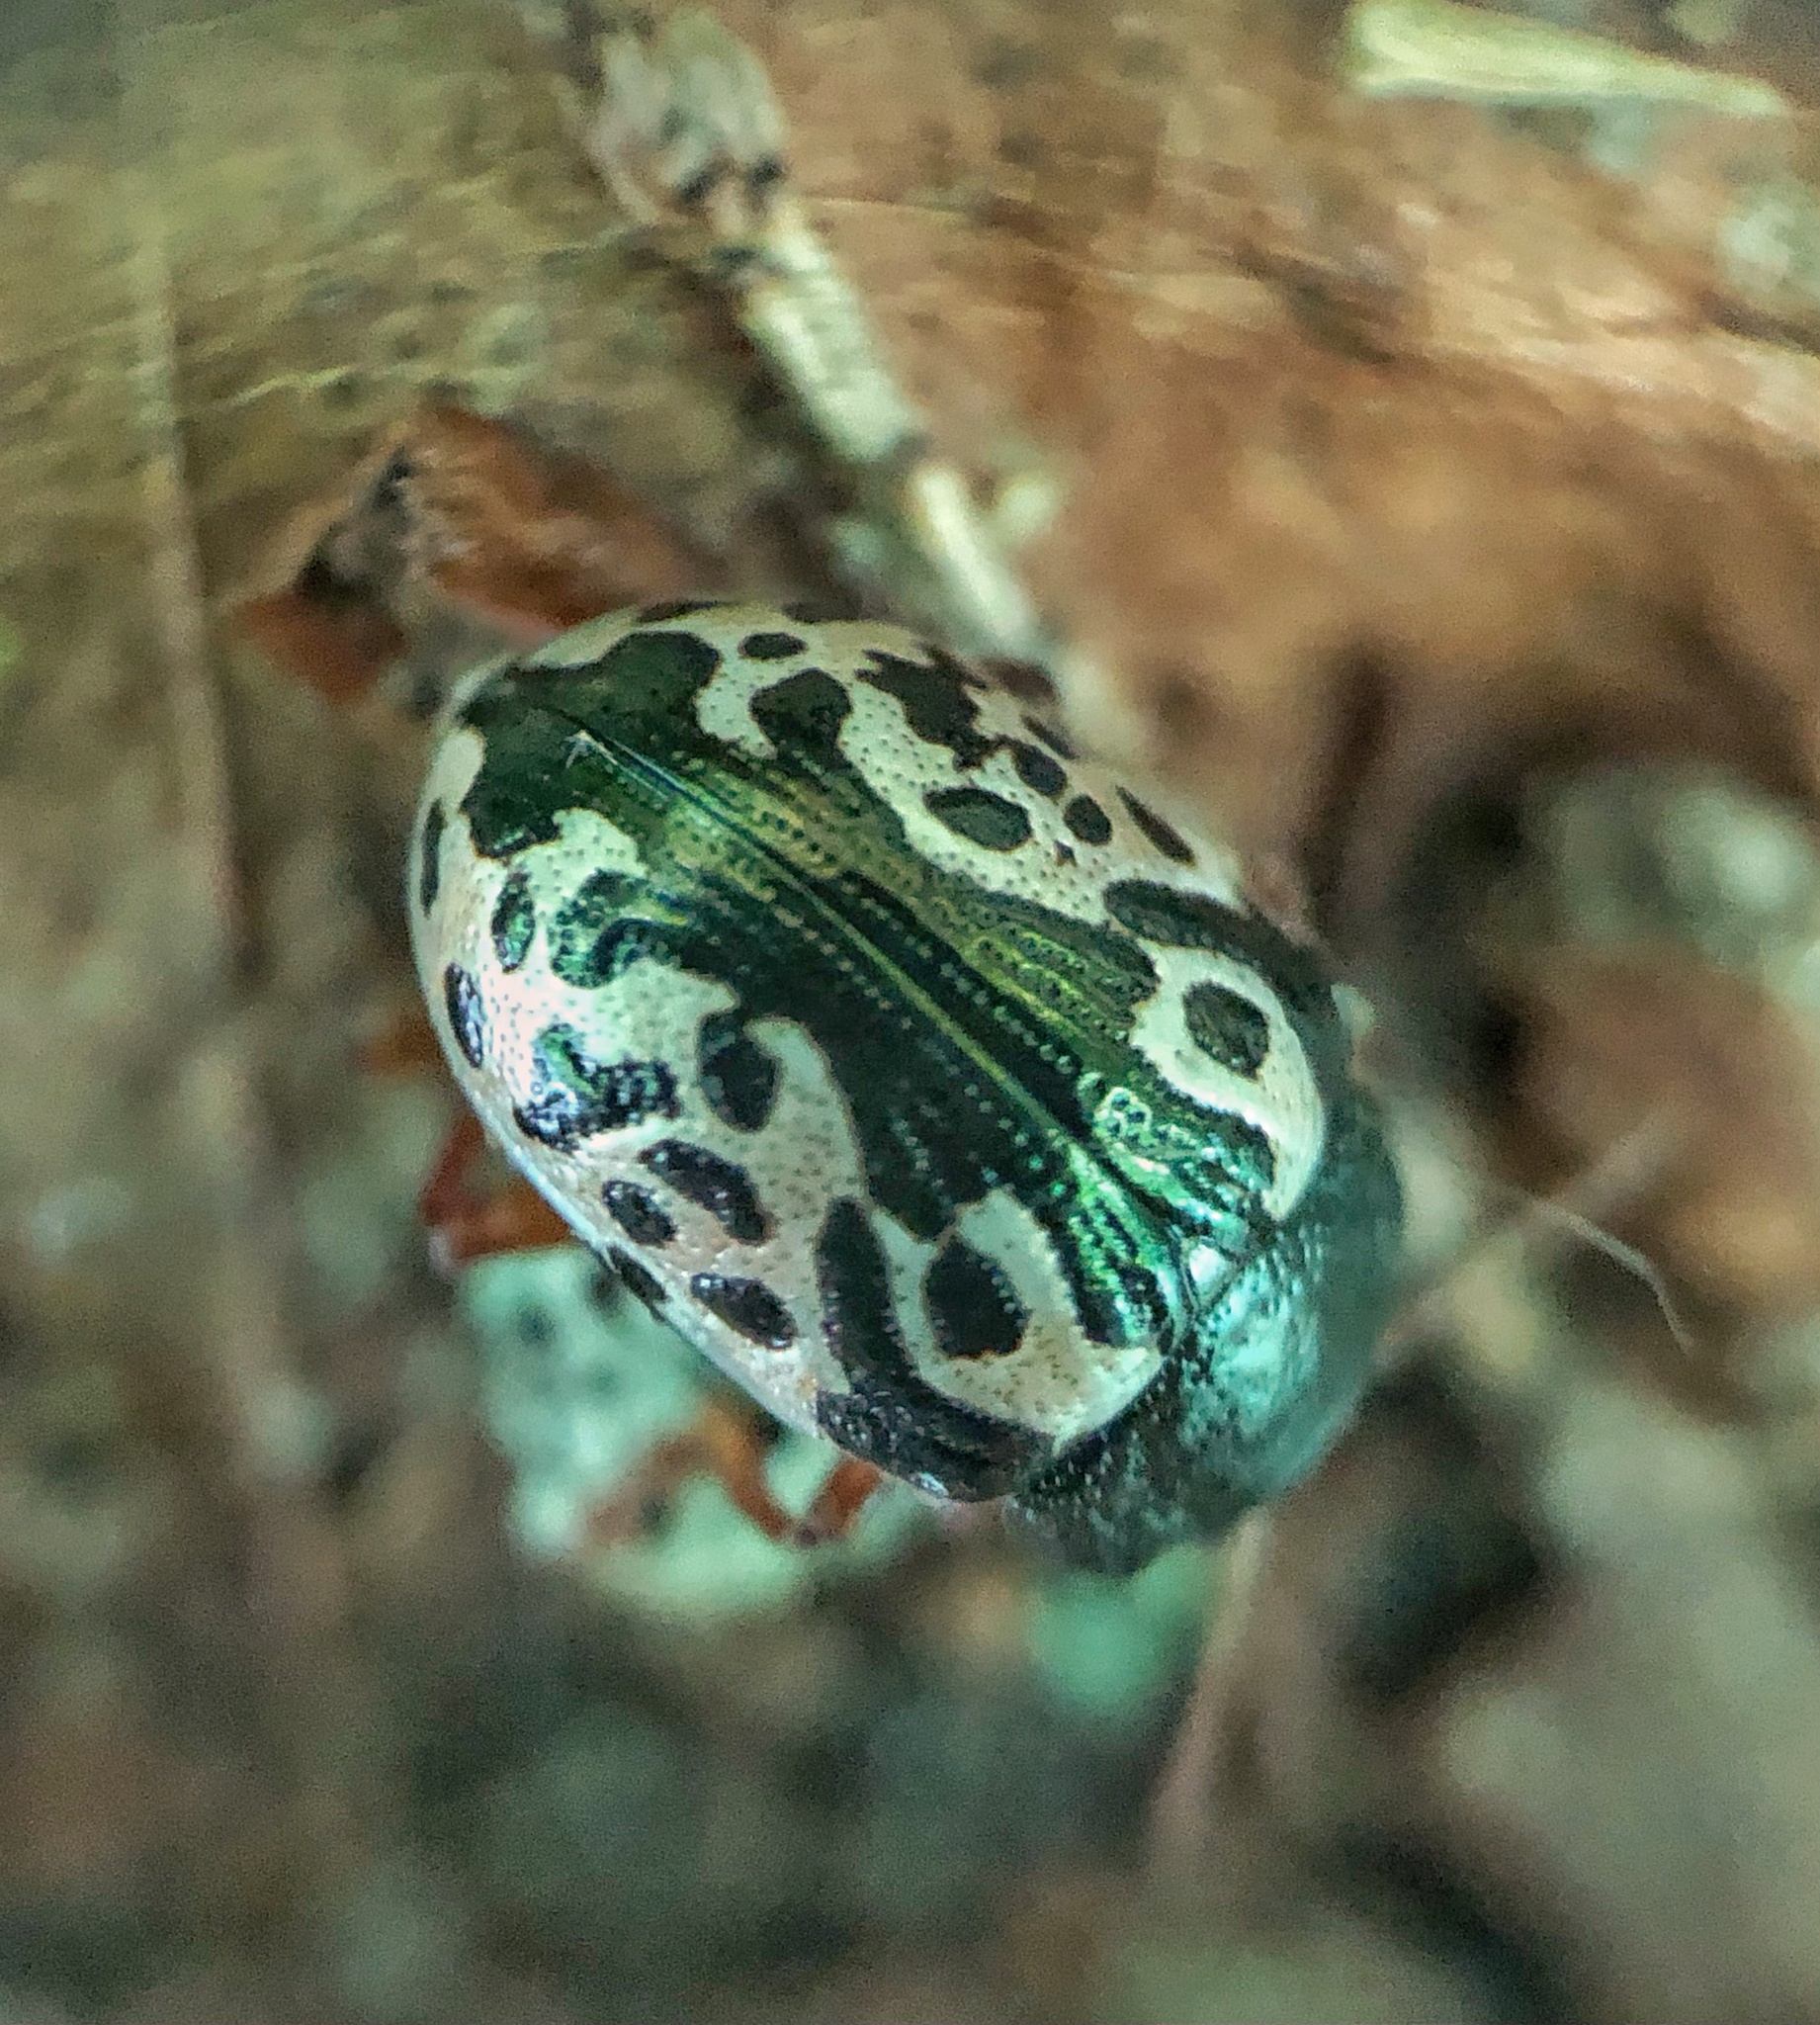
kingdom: Animalia
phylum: Arthropoda
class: Insecta
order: Coleoptera
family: Chrysomelidae
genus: Calligrapha
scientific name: Calligrapha ignota
